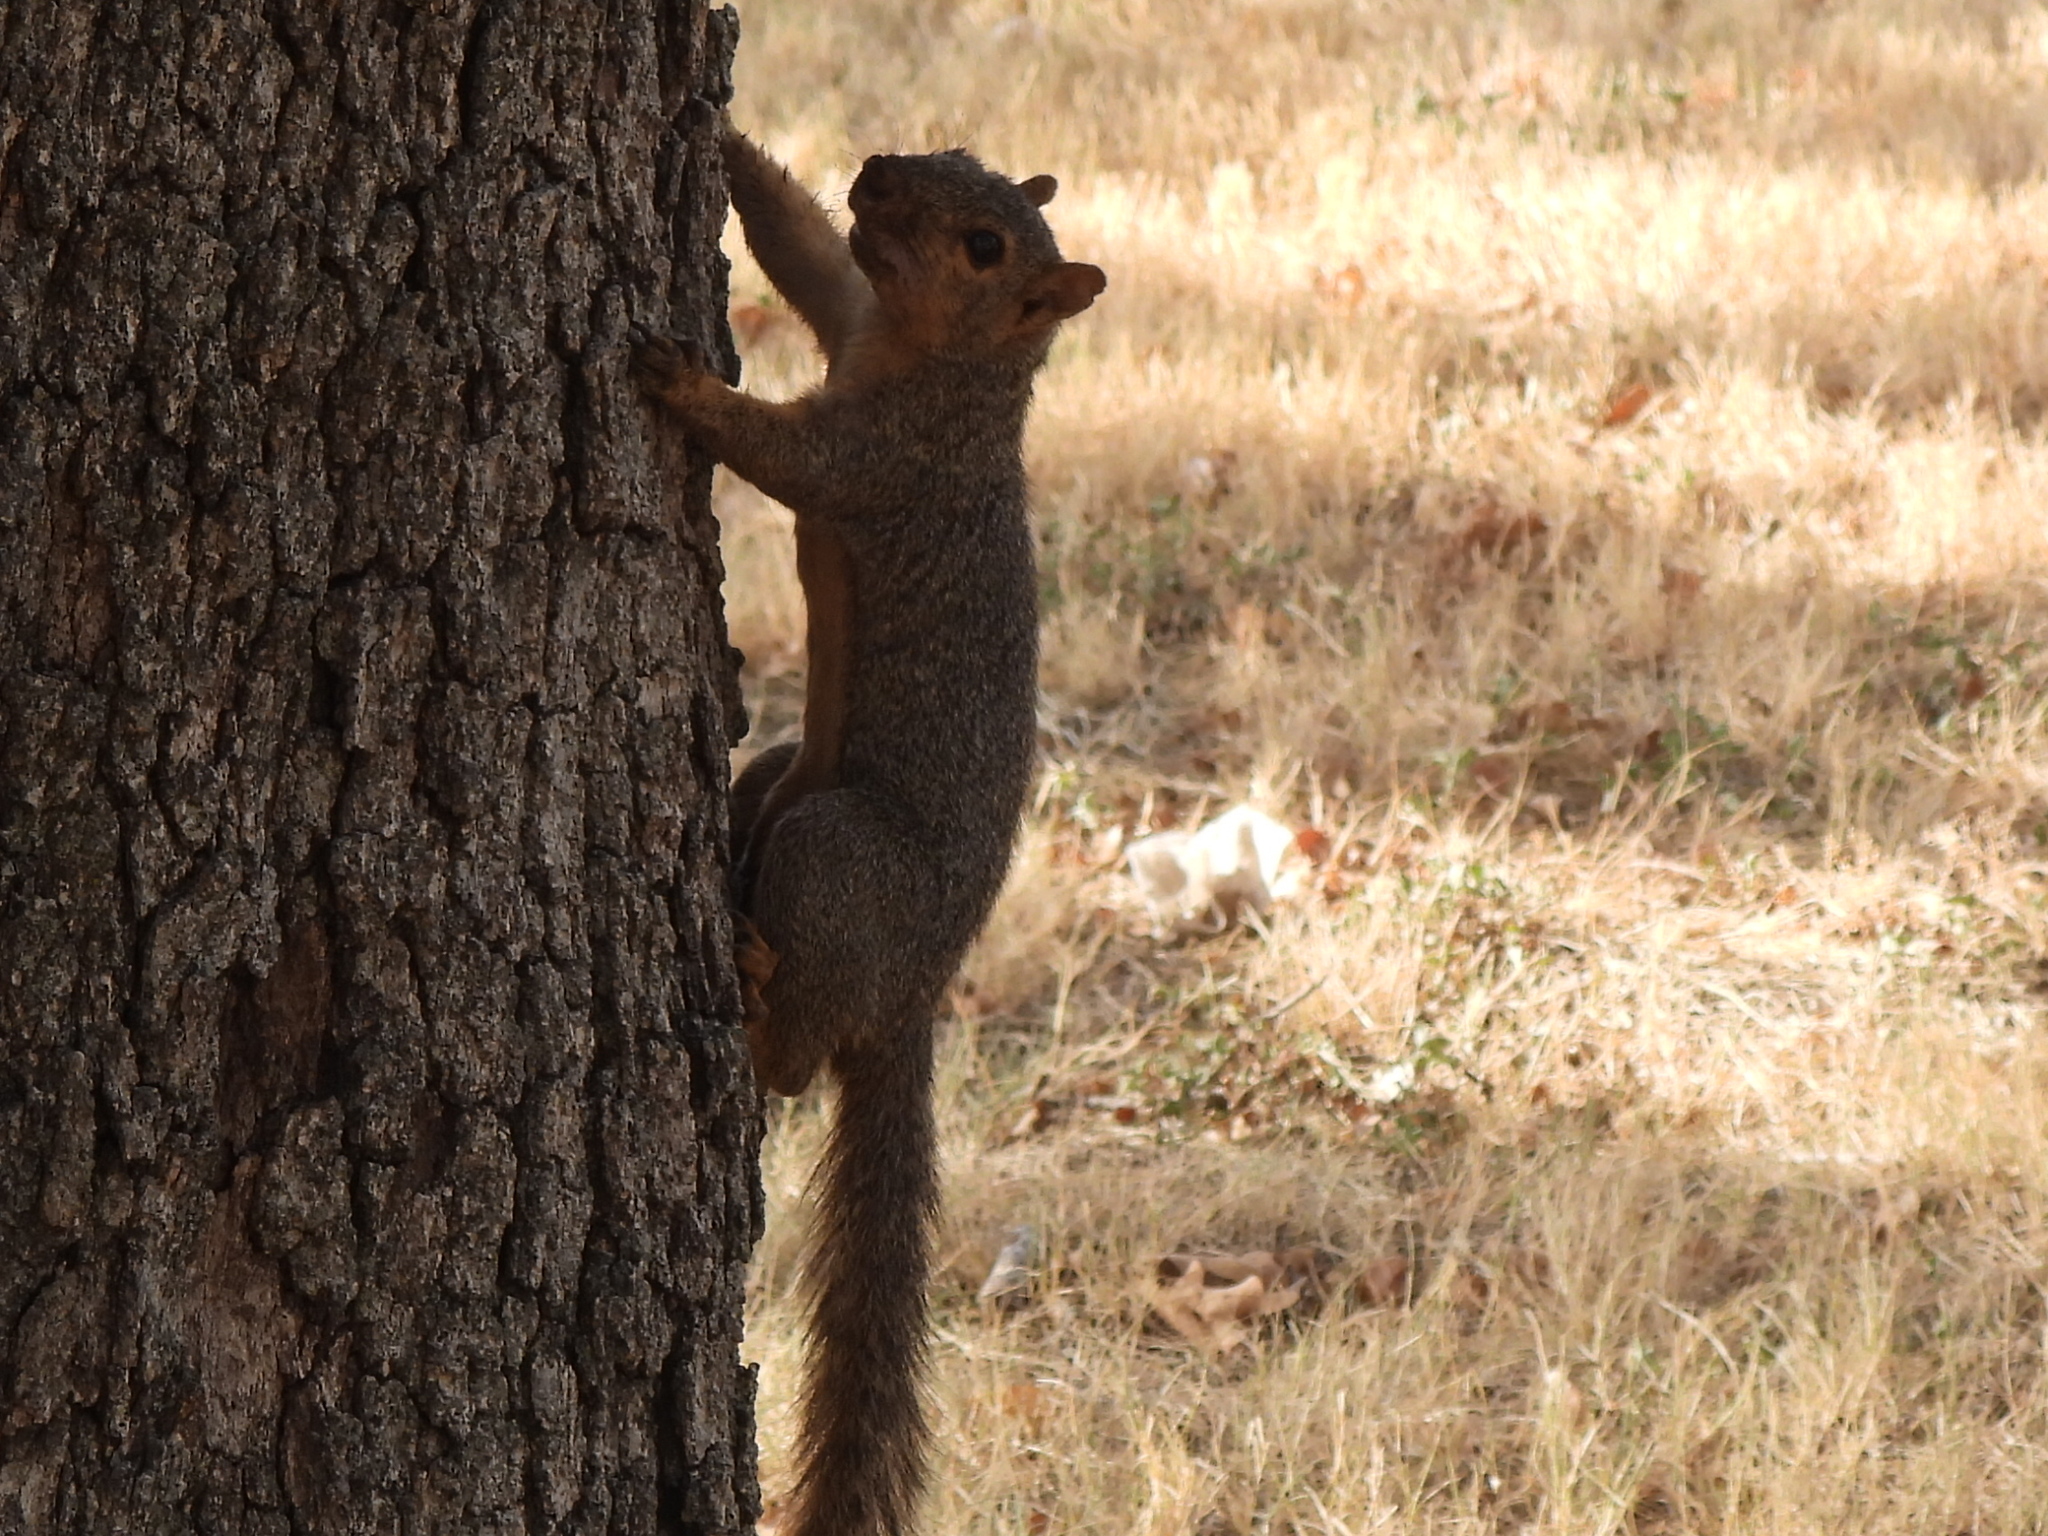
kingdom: Animalia
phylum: Chordata
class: Mammalia
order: Rodentia
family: Sciuridae
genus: Sciurus
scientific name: Sciurus niger
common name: Fox squirrel
